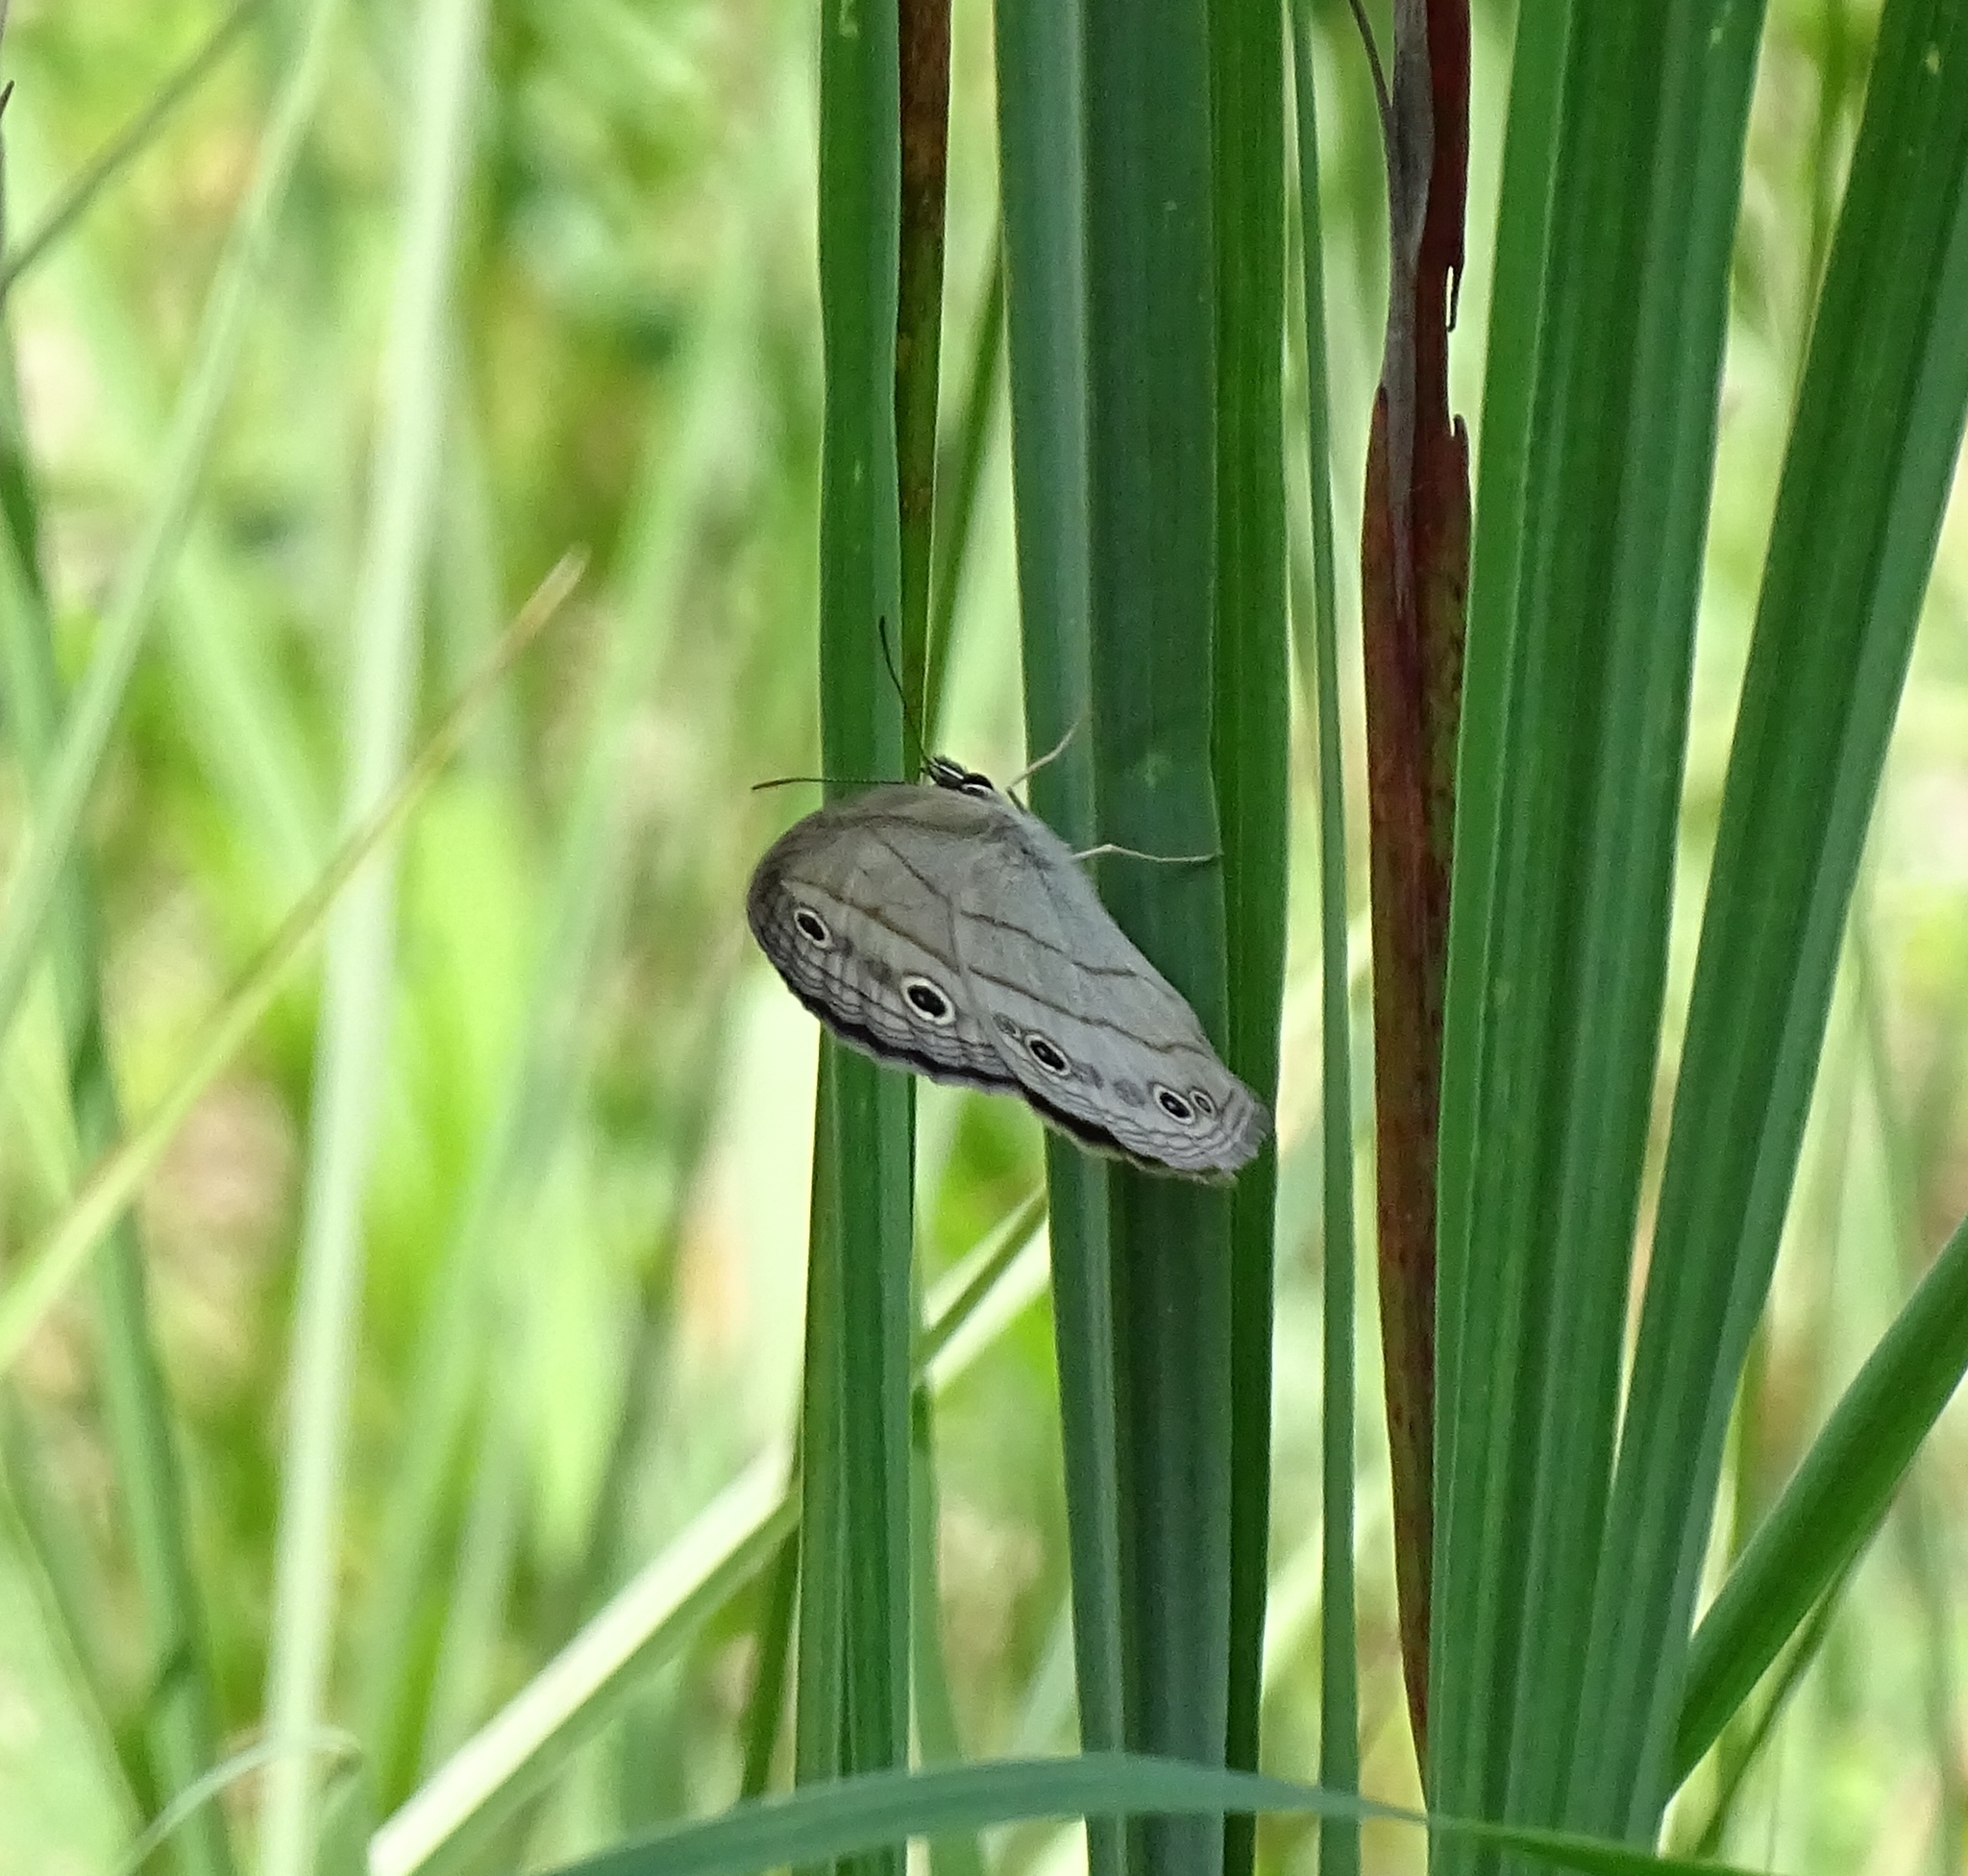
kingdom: Animalia
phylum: Arthropoda
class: Insecta
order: Lepidoptera
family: Nymphalidae
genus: Euptychia
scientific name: Euptychia cymela
